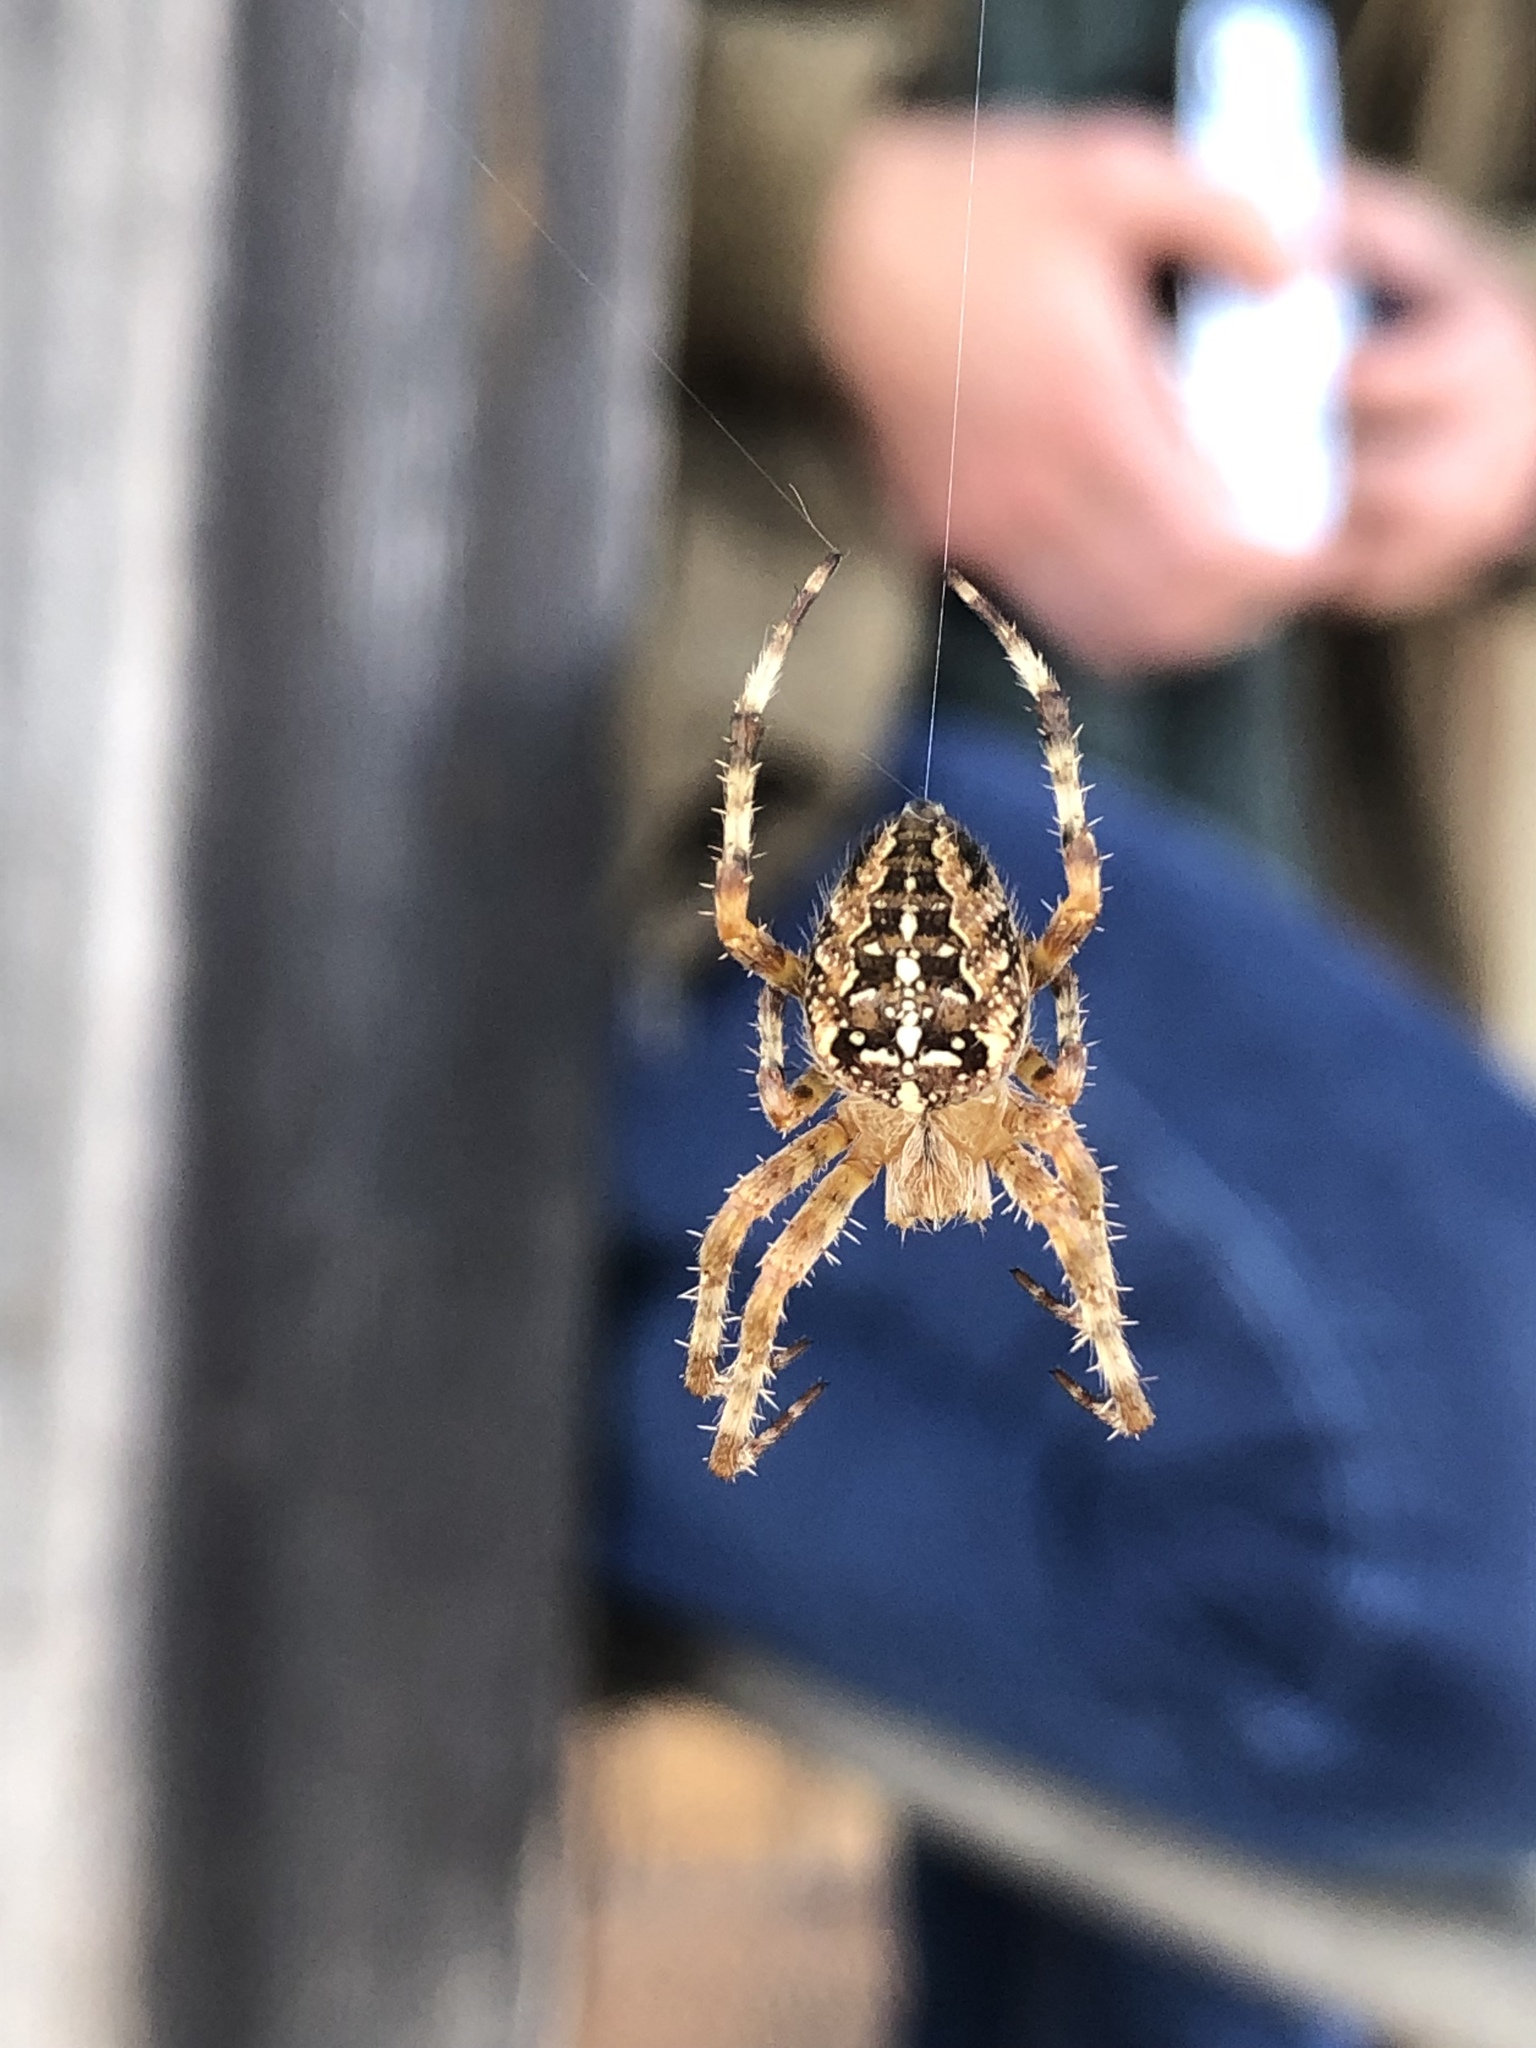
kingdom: Animalia
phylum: Arthropoda
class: Arachnida
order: Araneae
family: Araneidae
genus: Araneus
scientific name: Araneus diadematus
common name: Cross orbweaver
